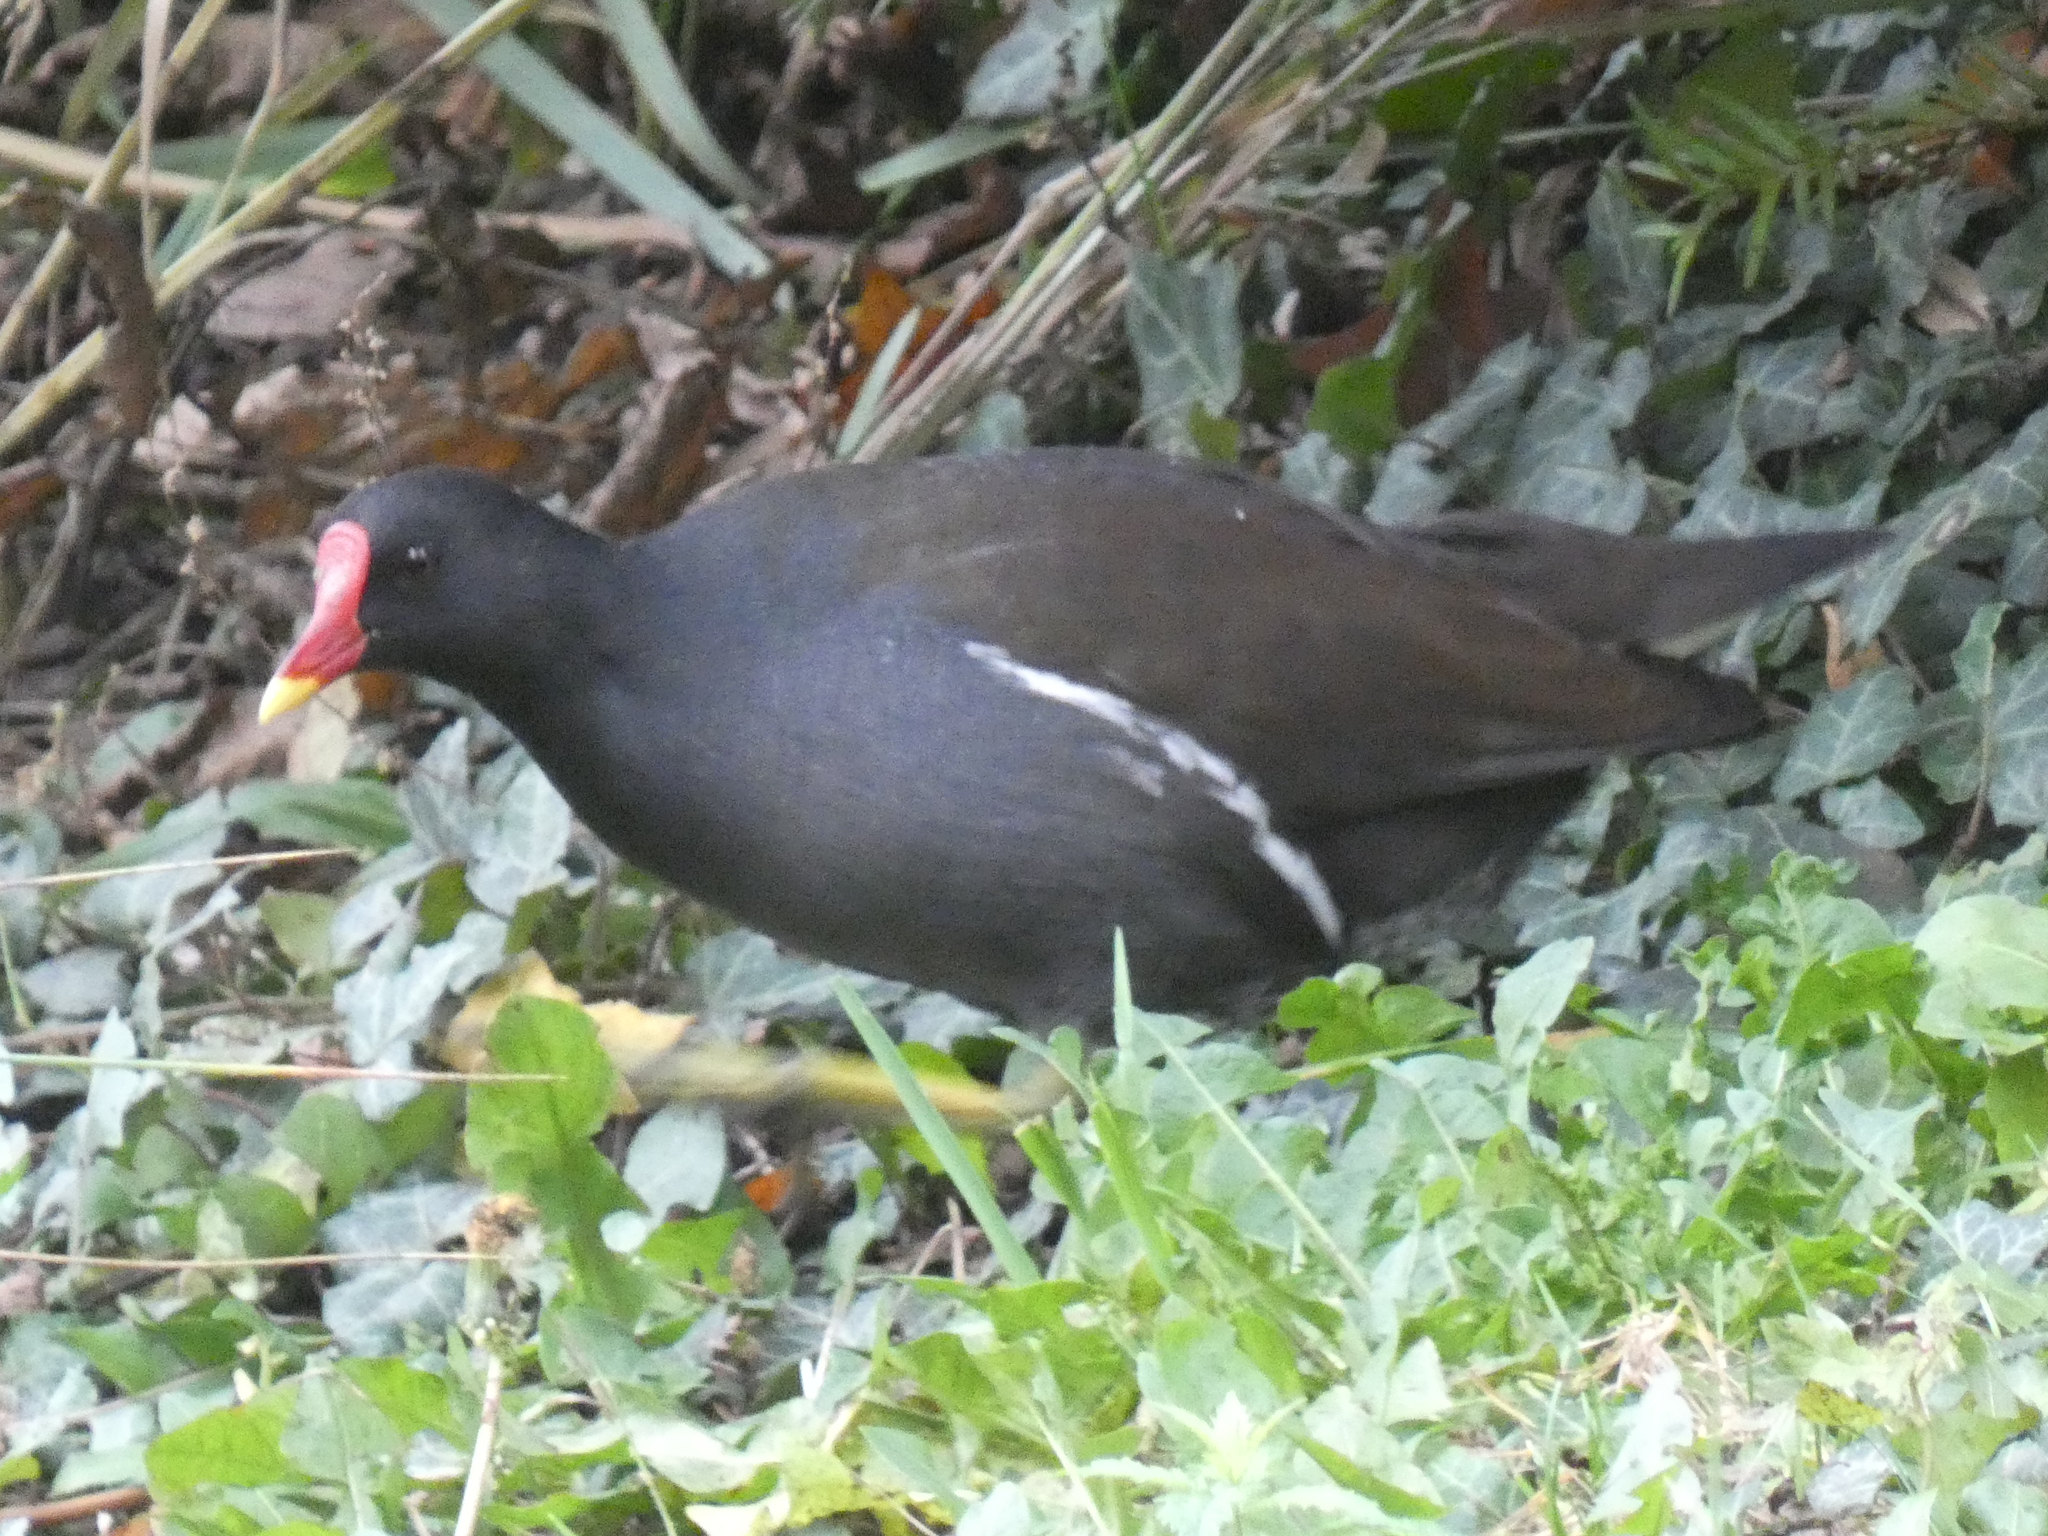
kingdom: Animalia
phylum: Chordata
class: Aves
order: Gruiformes
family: Rallidae
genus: Gallinula
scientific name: Gallinula chloropus
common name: Common moorhen
